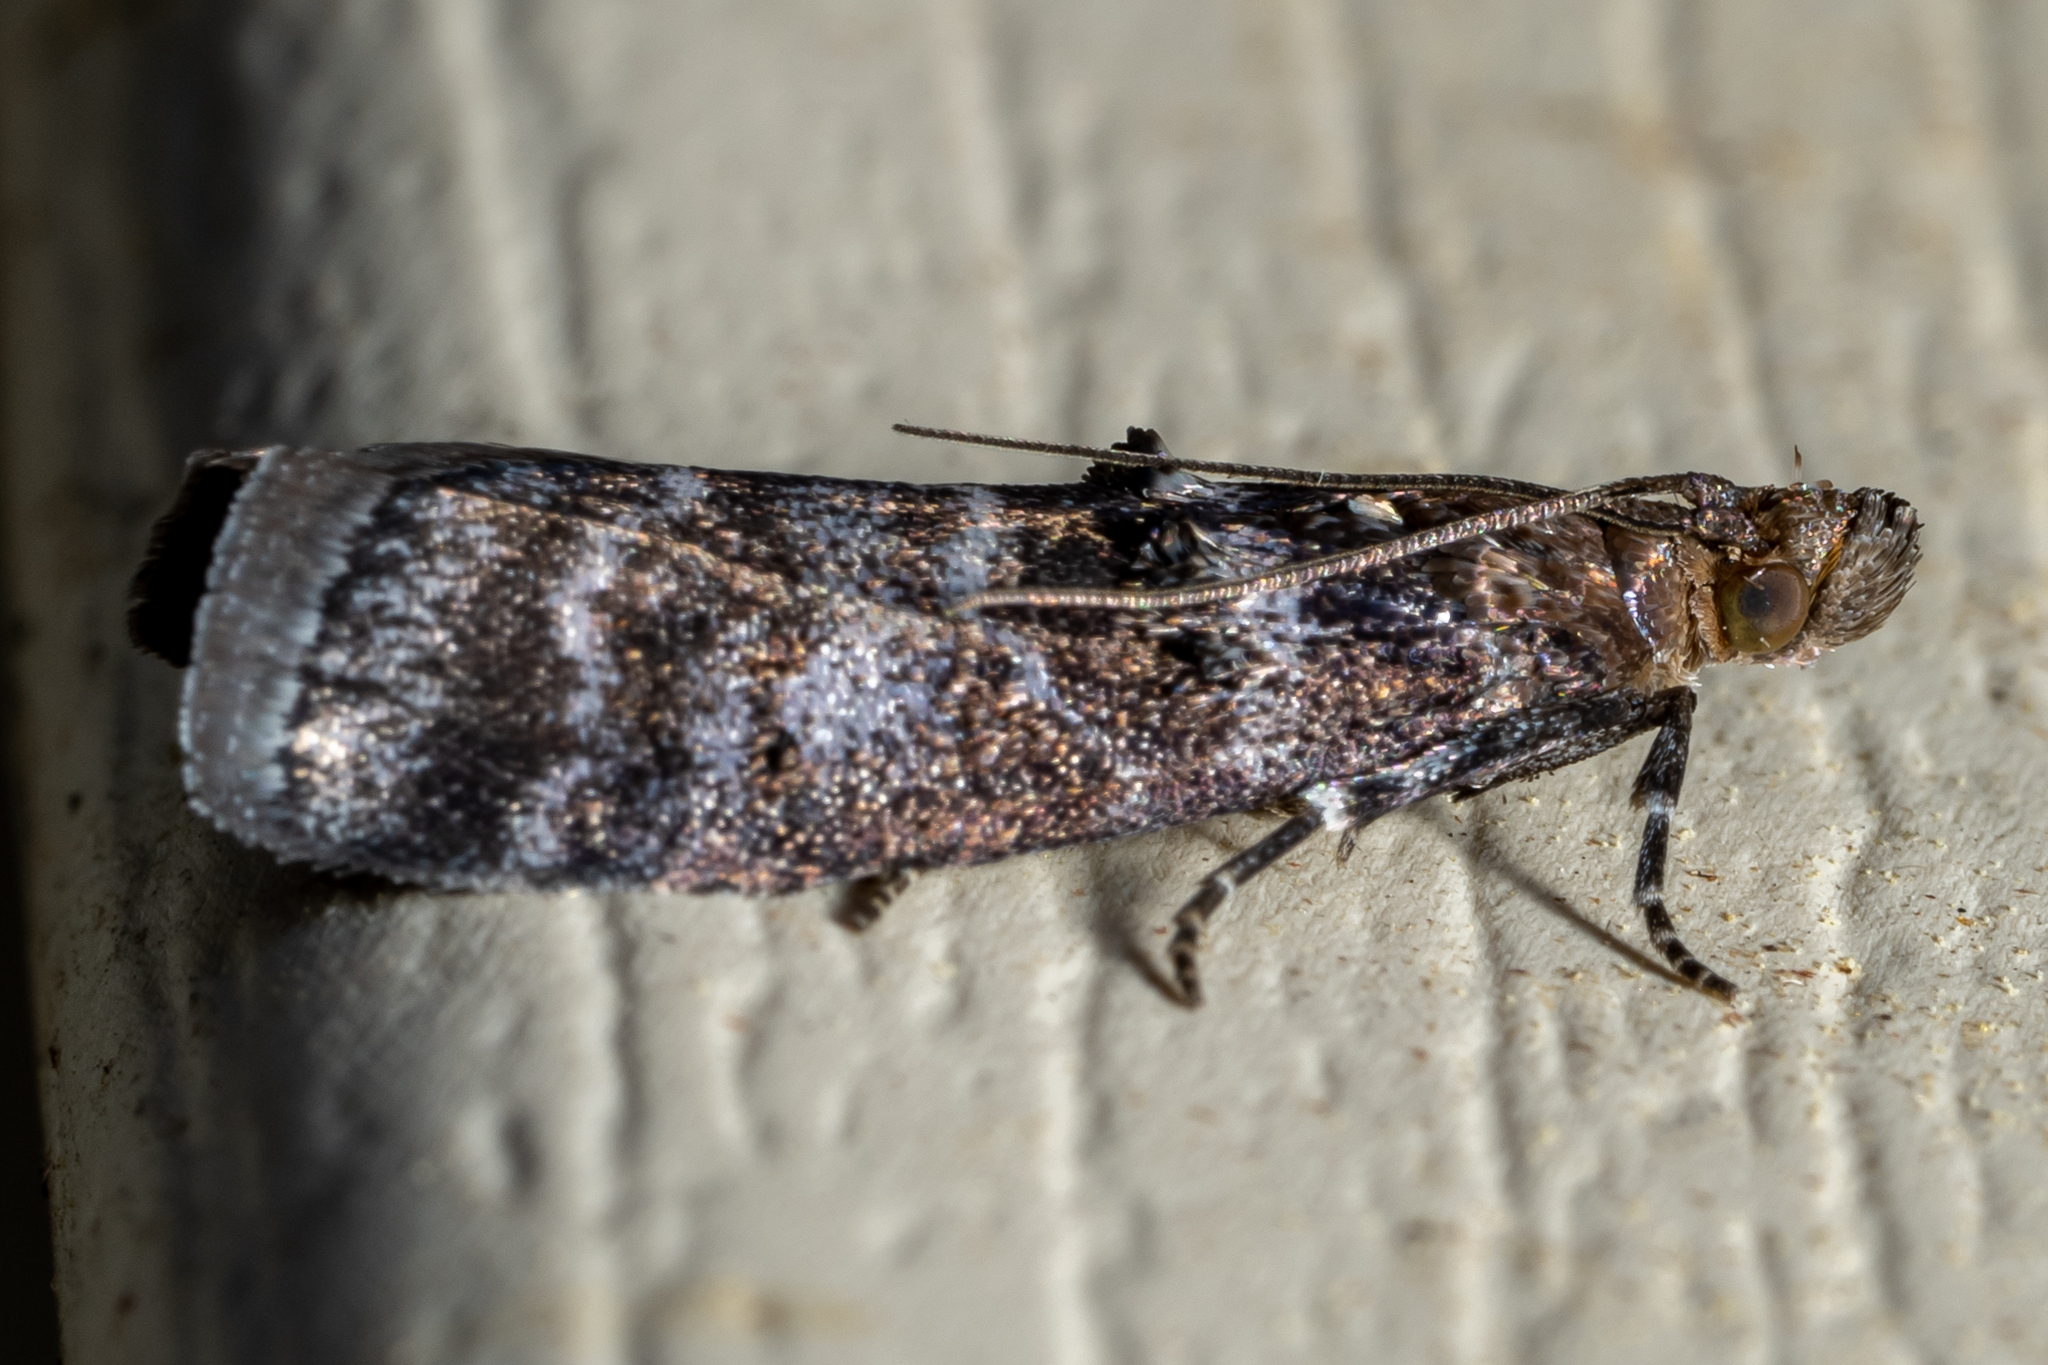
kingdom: Animalia
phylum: Arthropoda
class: Insecta
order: Lepidoptera
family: Pyralidae
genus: Ortholepis
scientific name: Ortholepis pasadamia
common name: Striped birch pyralid moth
